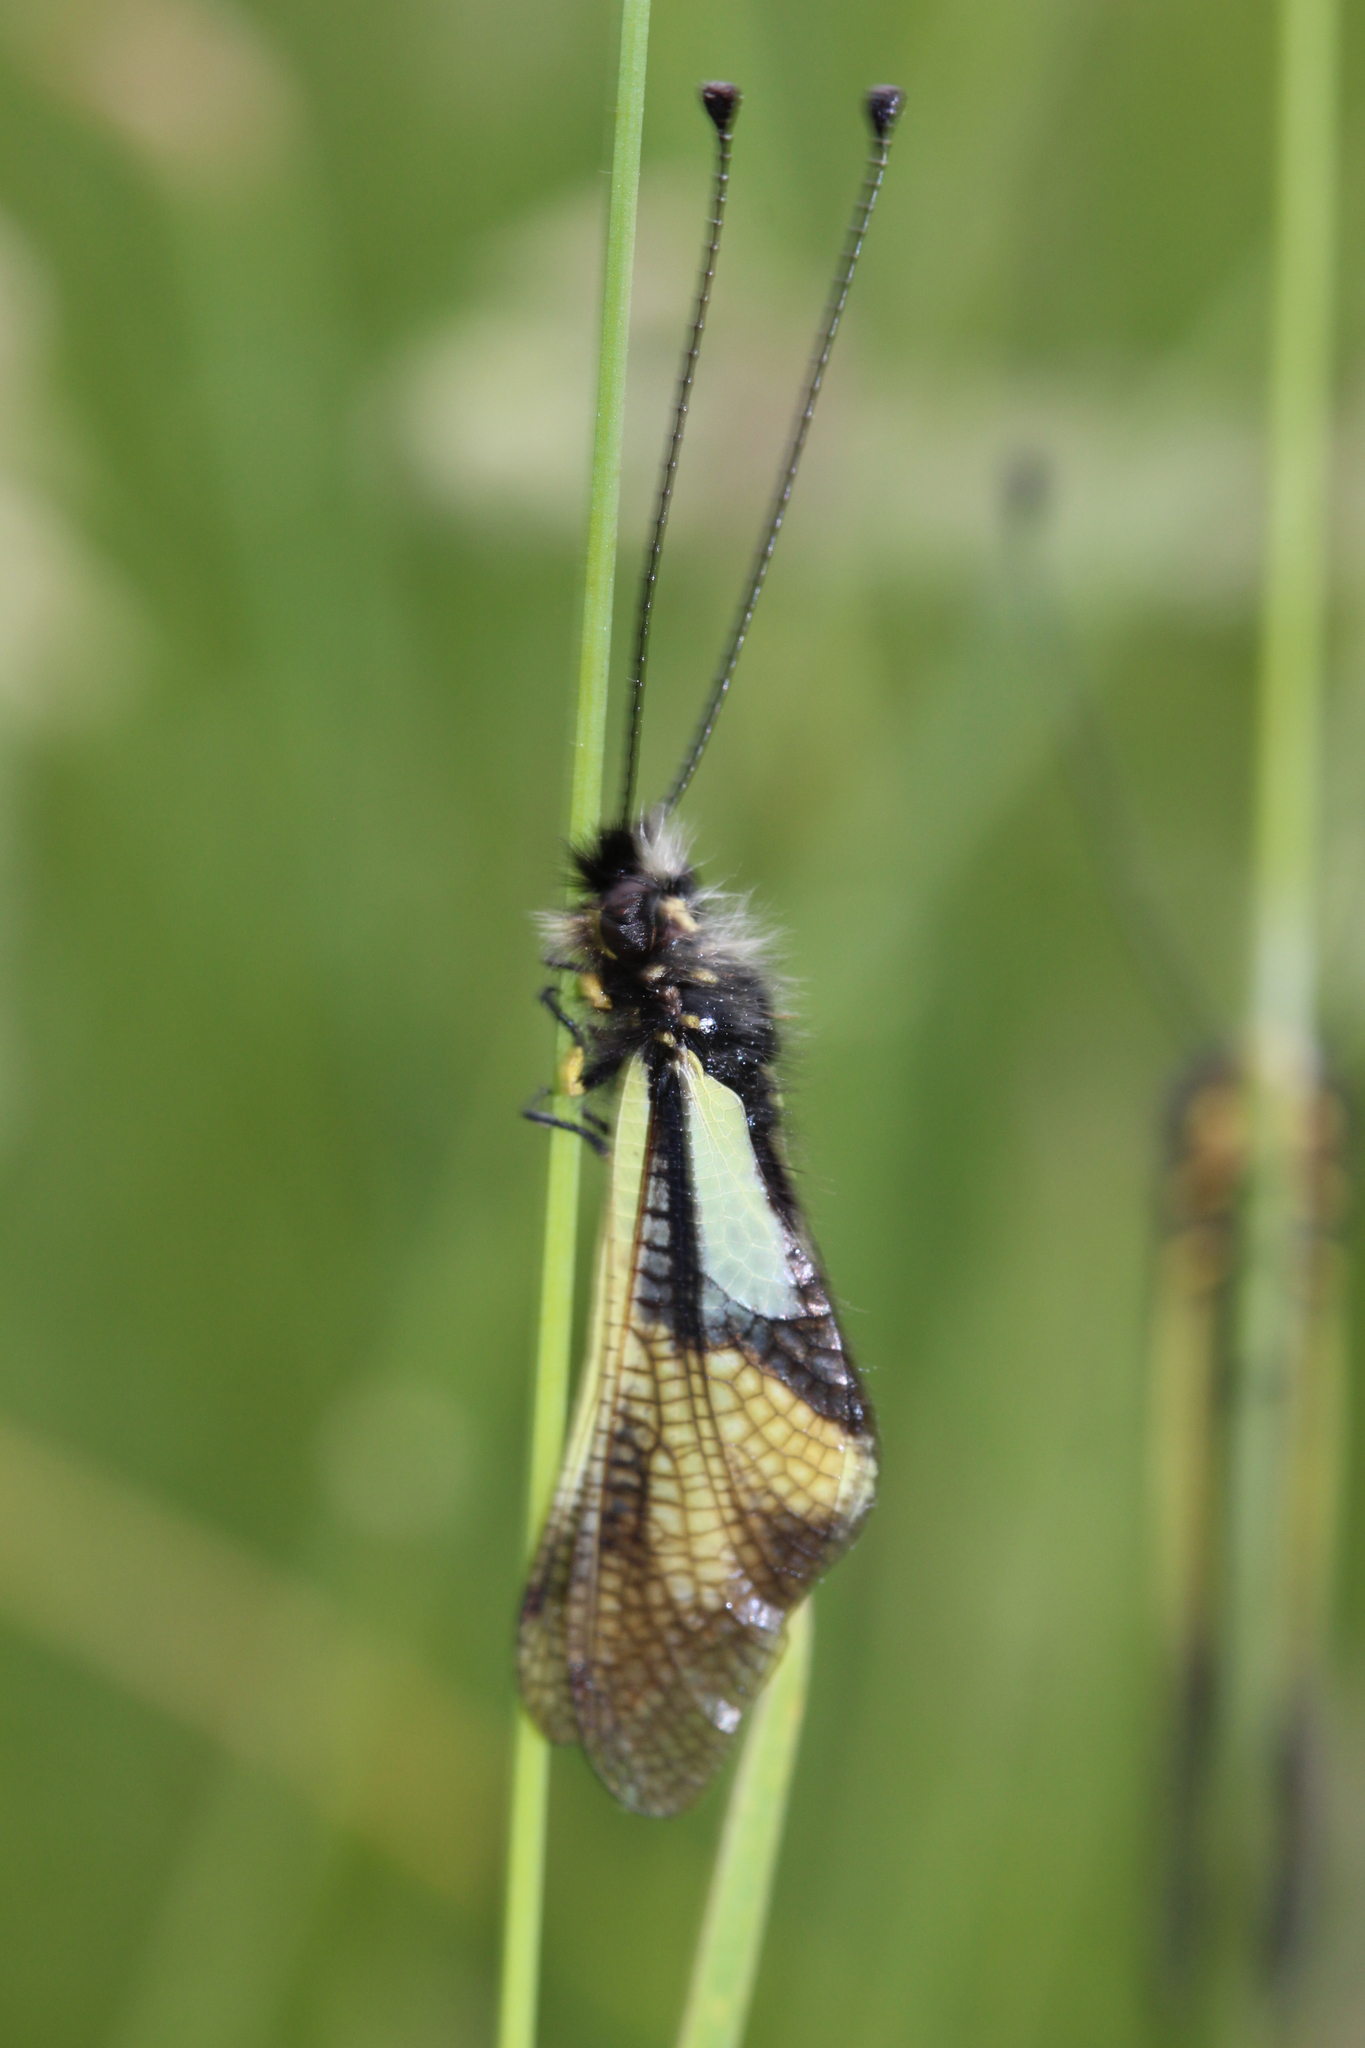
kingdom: Animalia
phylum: Arthropoda
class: Insecta
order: Neuroptera
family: Ascalaphidae
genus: Libelloides
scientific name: Libelloides coccajus
